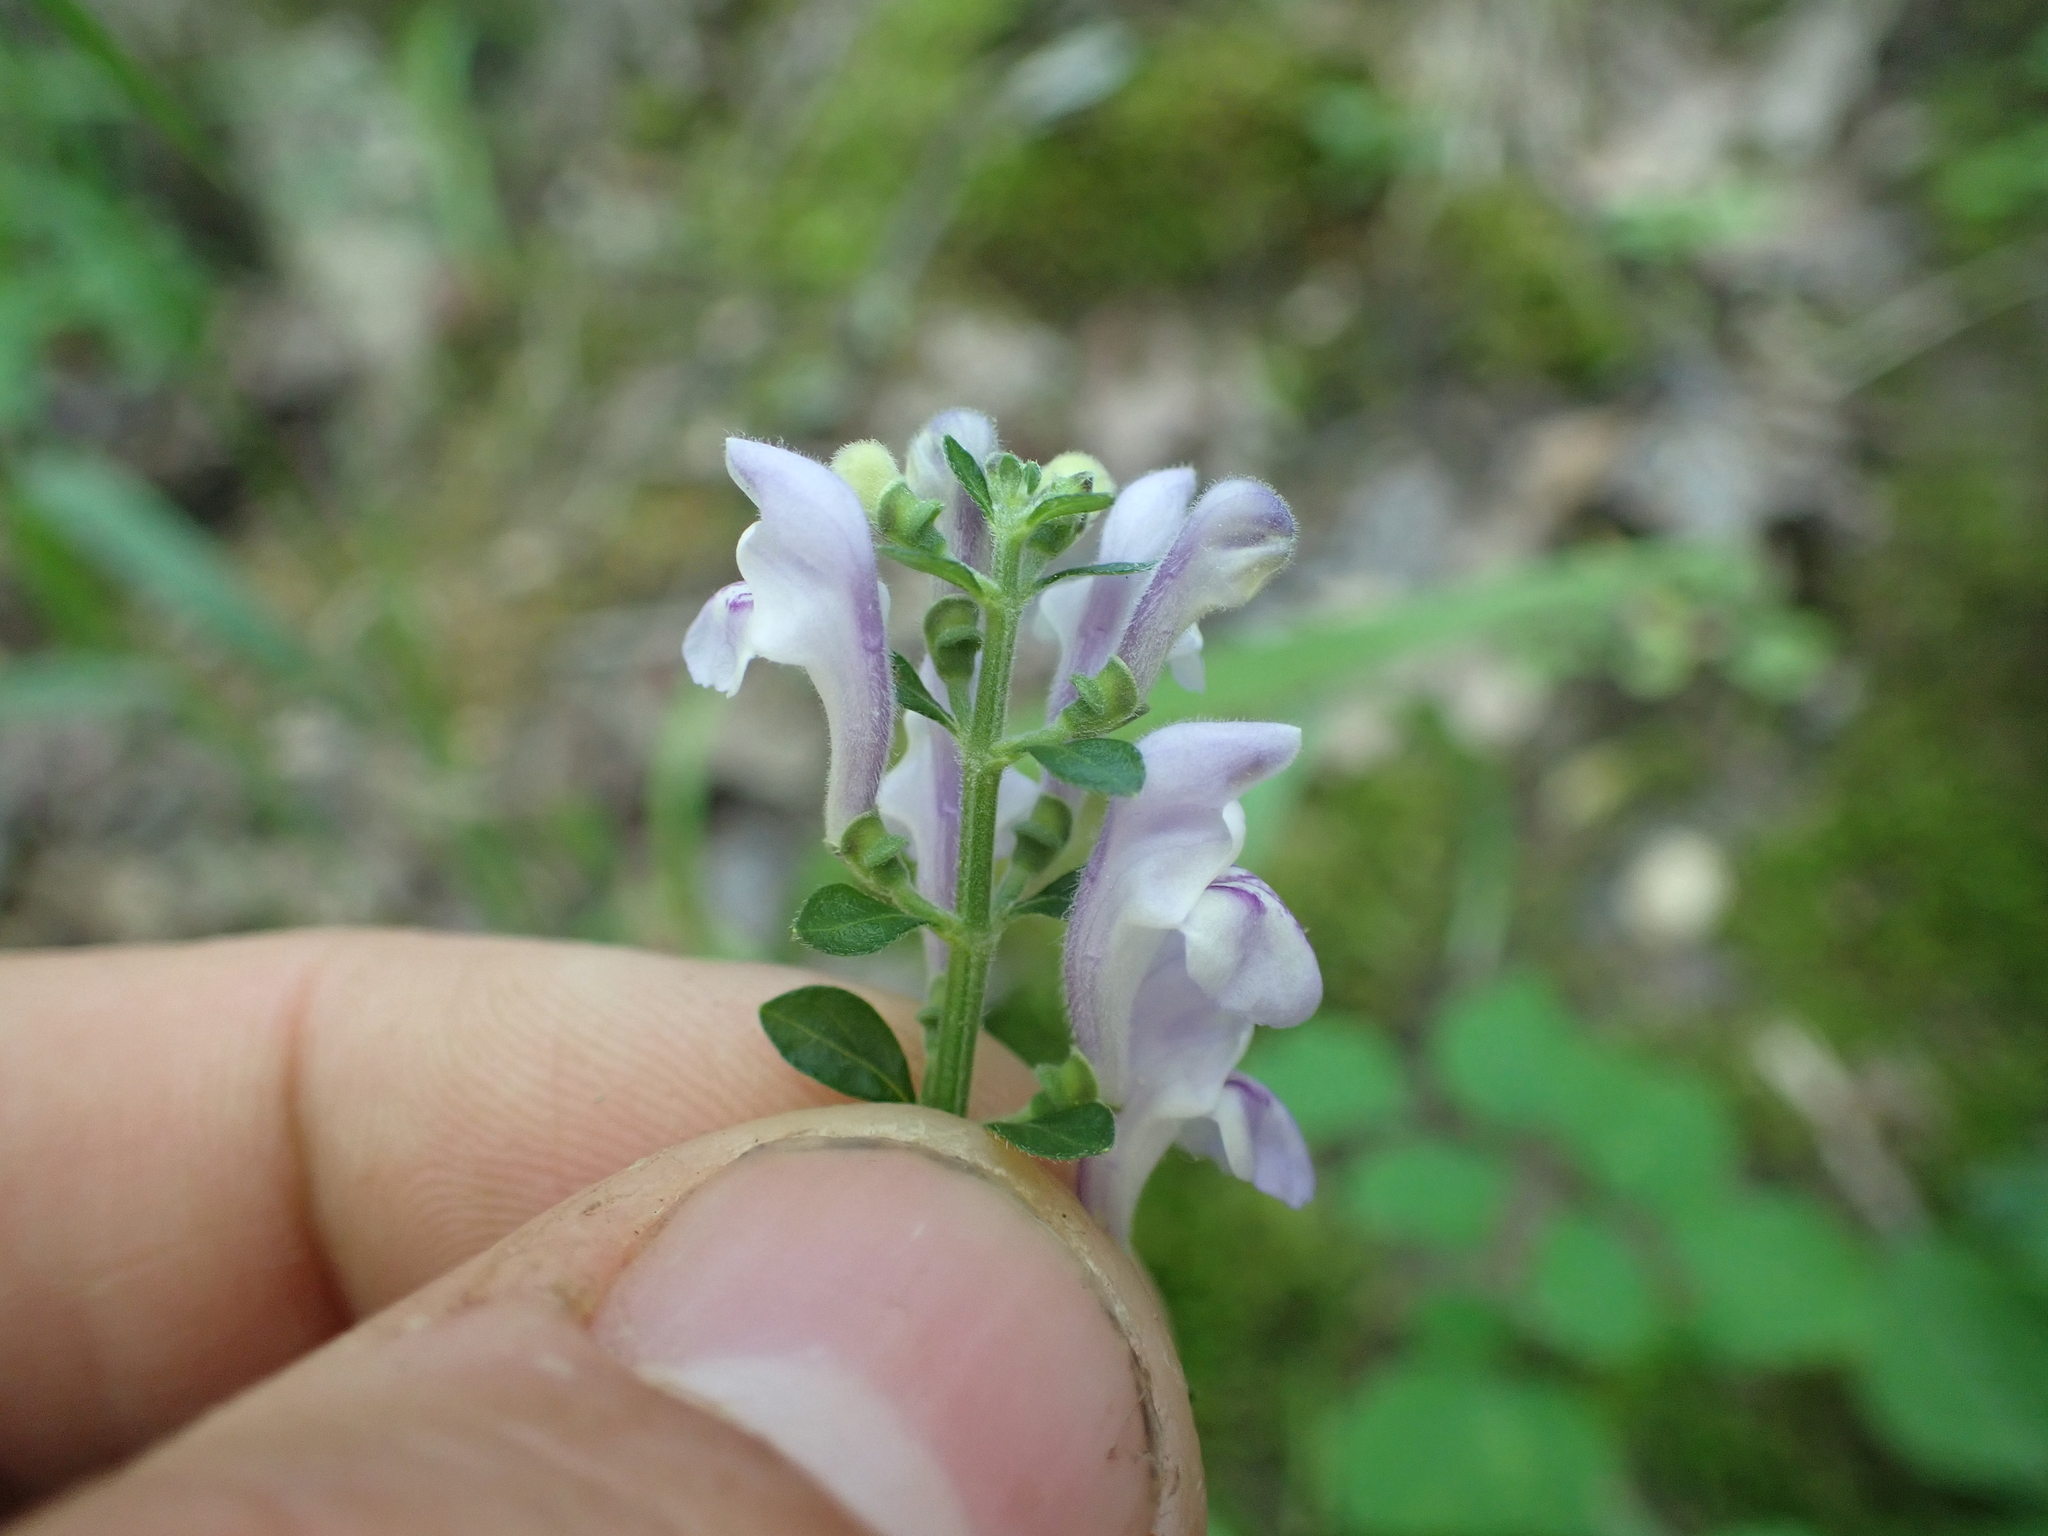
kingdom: Plantae
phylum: Tracheophyta
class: Magnoliopsida
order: Lamiales
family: Lamiaceae
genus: Scutellaria
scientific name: Scutellaria elliptica
